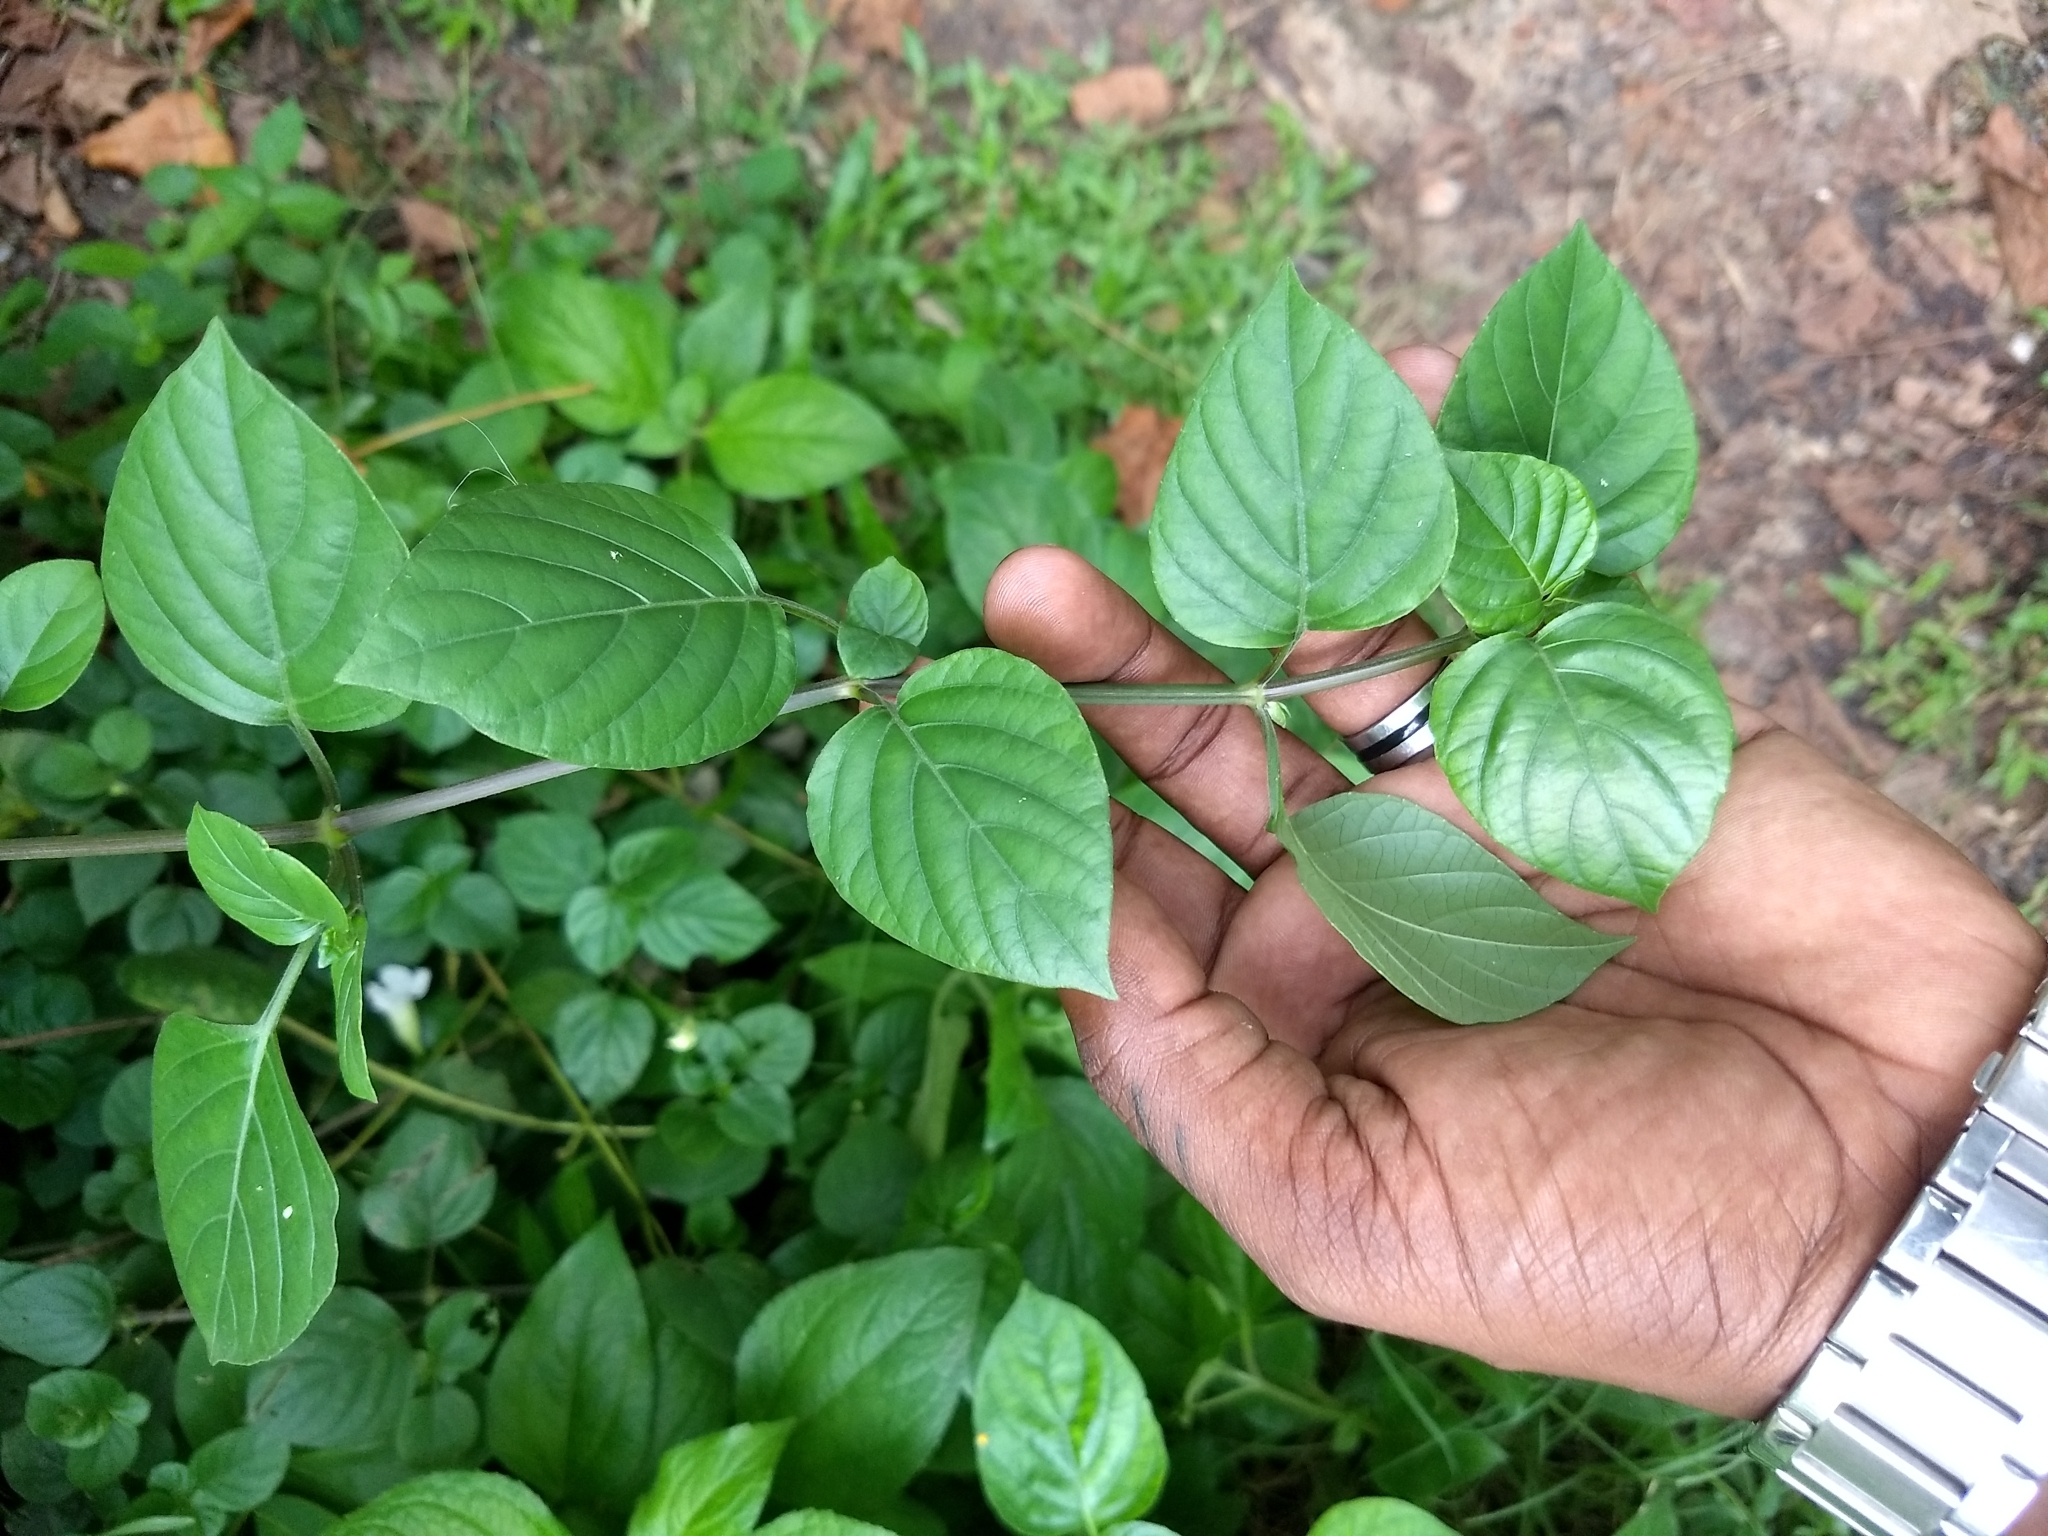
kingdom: Plantae
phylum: Tracheophyta
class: Magnoliopsida
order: Lamiales
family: Acanthaceae
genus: Asystasia
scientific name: Asystasia gangetica
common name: Chinese violet
